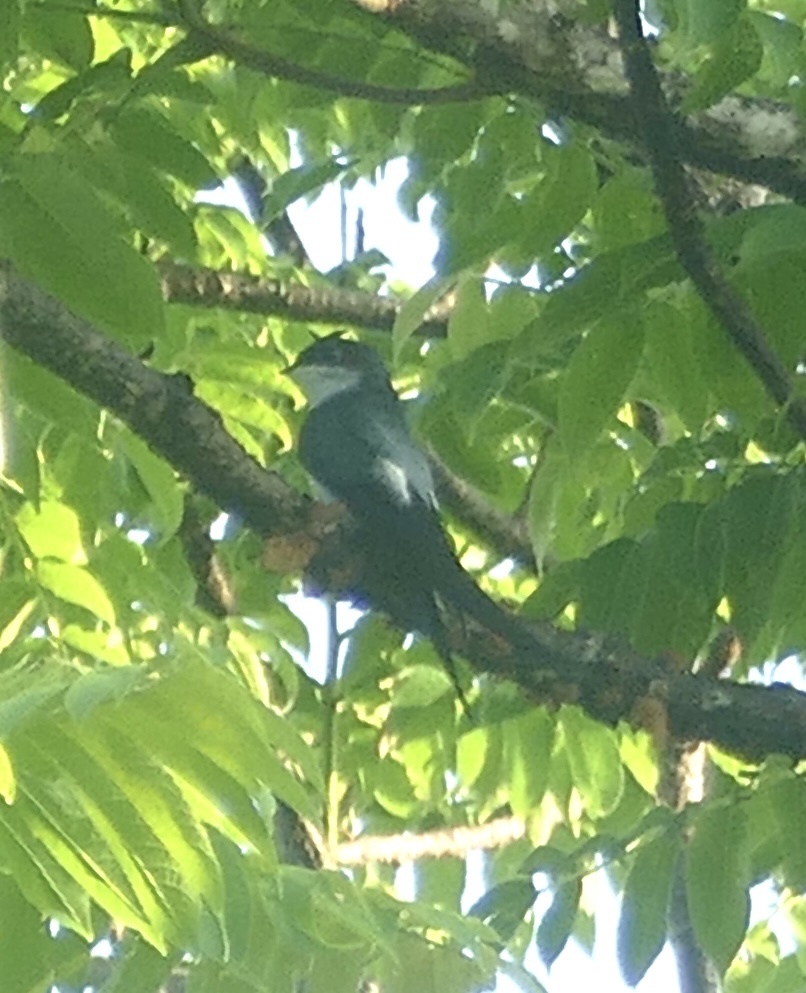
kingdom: Animalia
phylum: Chordata
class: Aves
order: Apodiformes
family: Hemiprocnidae
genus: Hemiprocne
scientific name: Hemiprocne longipennis
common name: Grey-rumped treeswift
